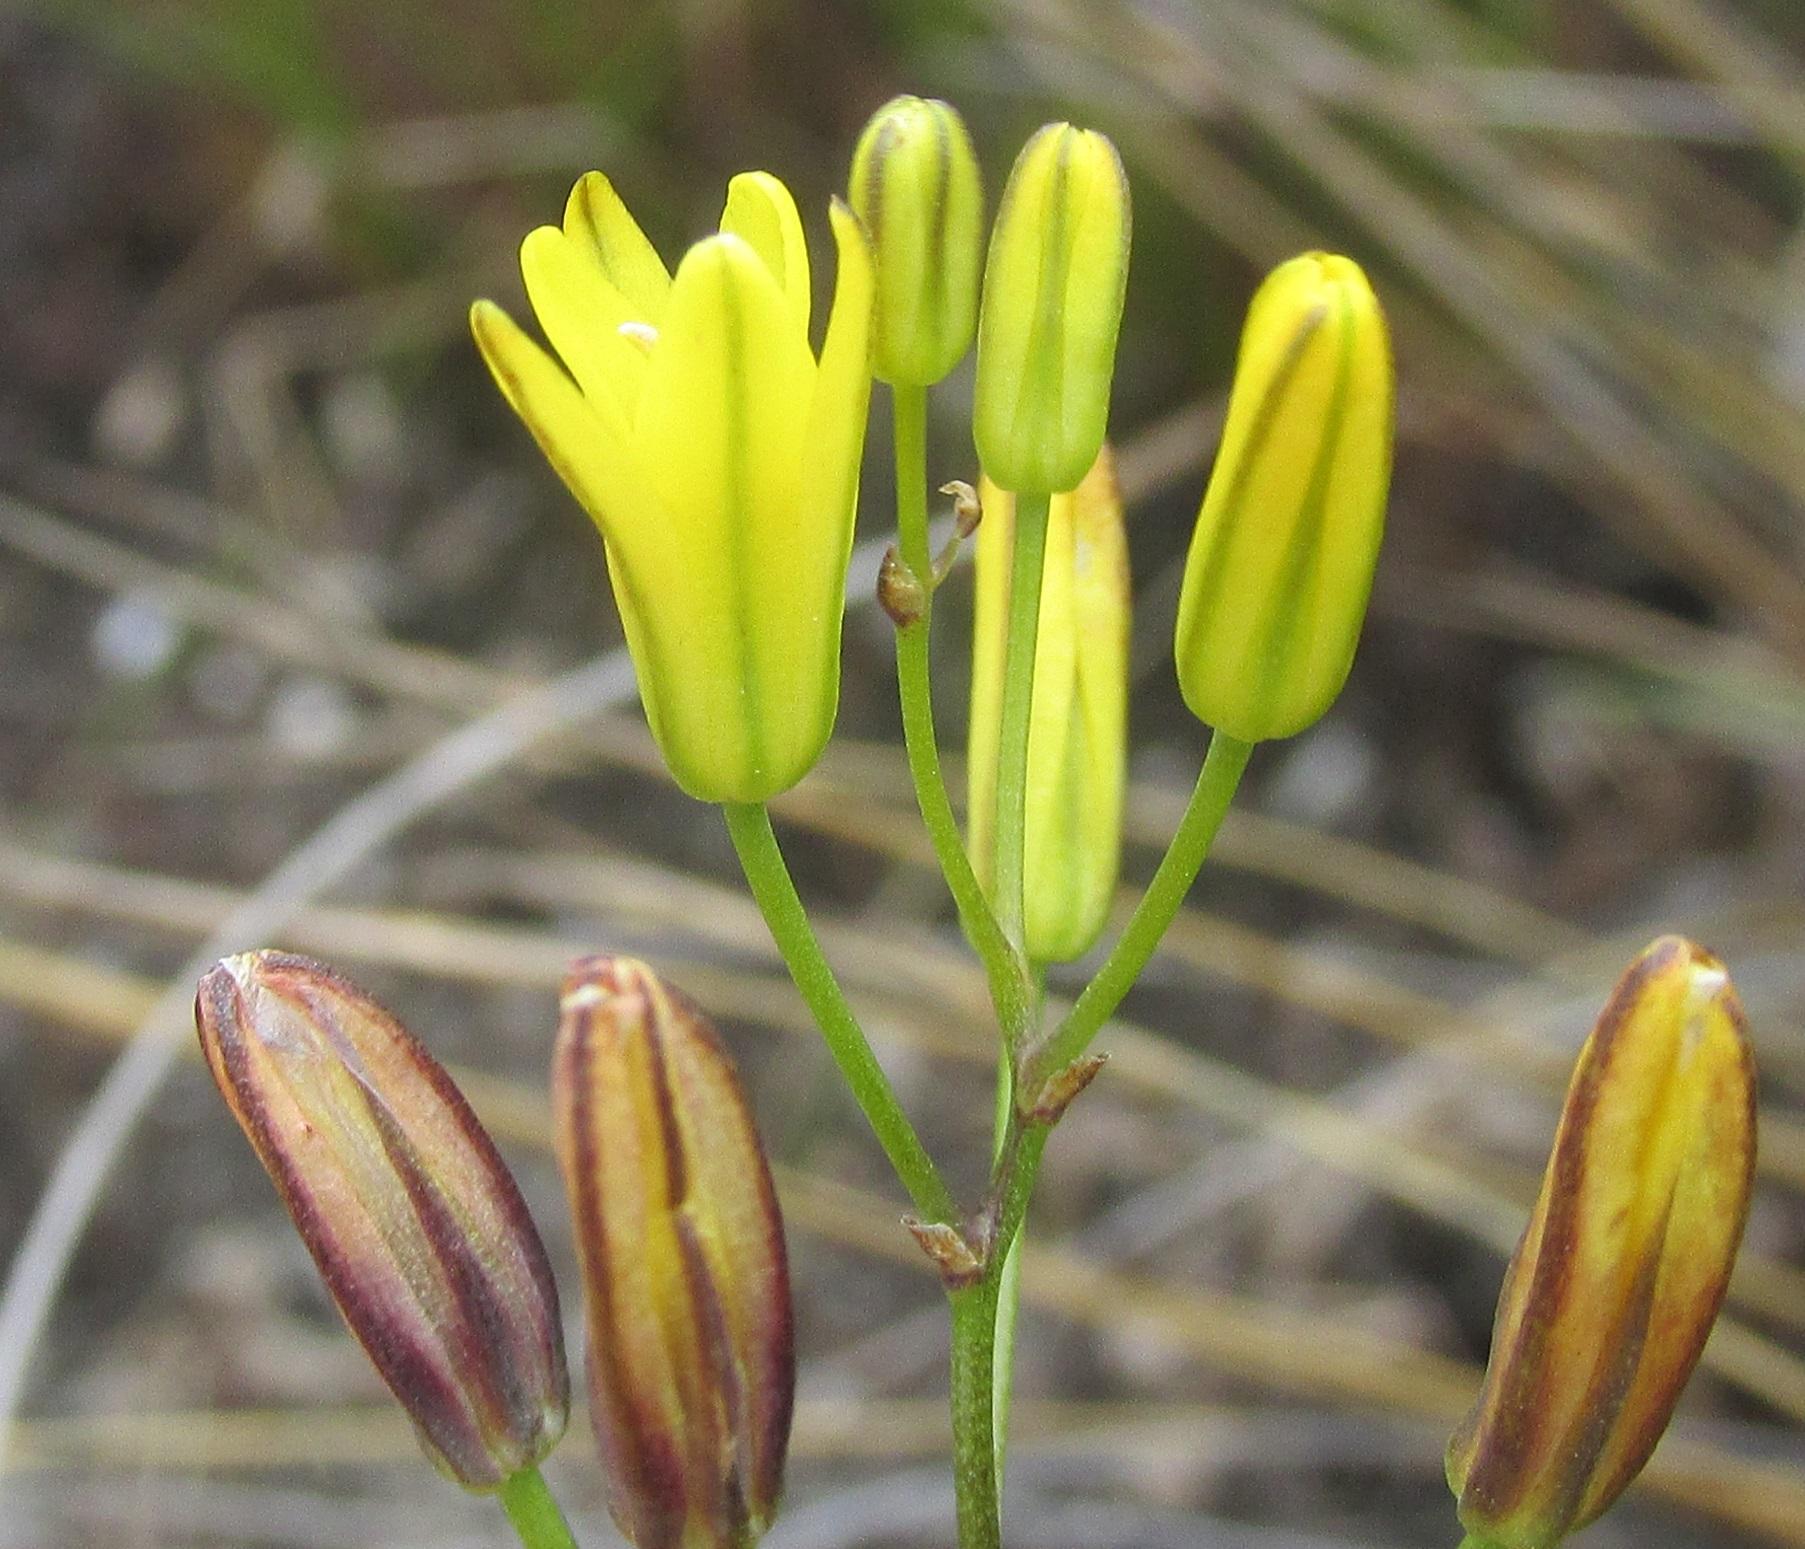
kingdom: Plantae
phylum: Tracheophyta
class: Liliopsida
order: Asparagales
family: Asparagaceae
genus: Eriospermum
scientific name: Eriospermum ciliatum
